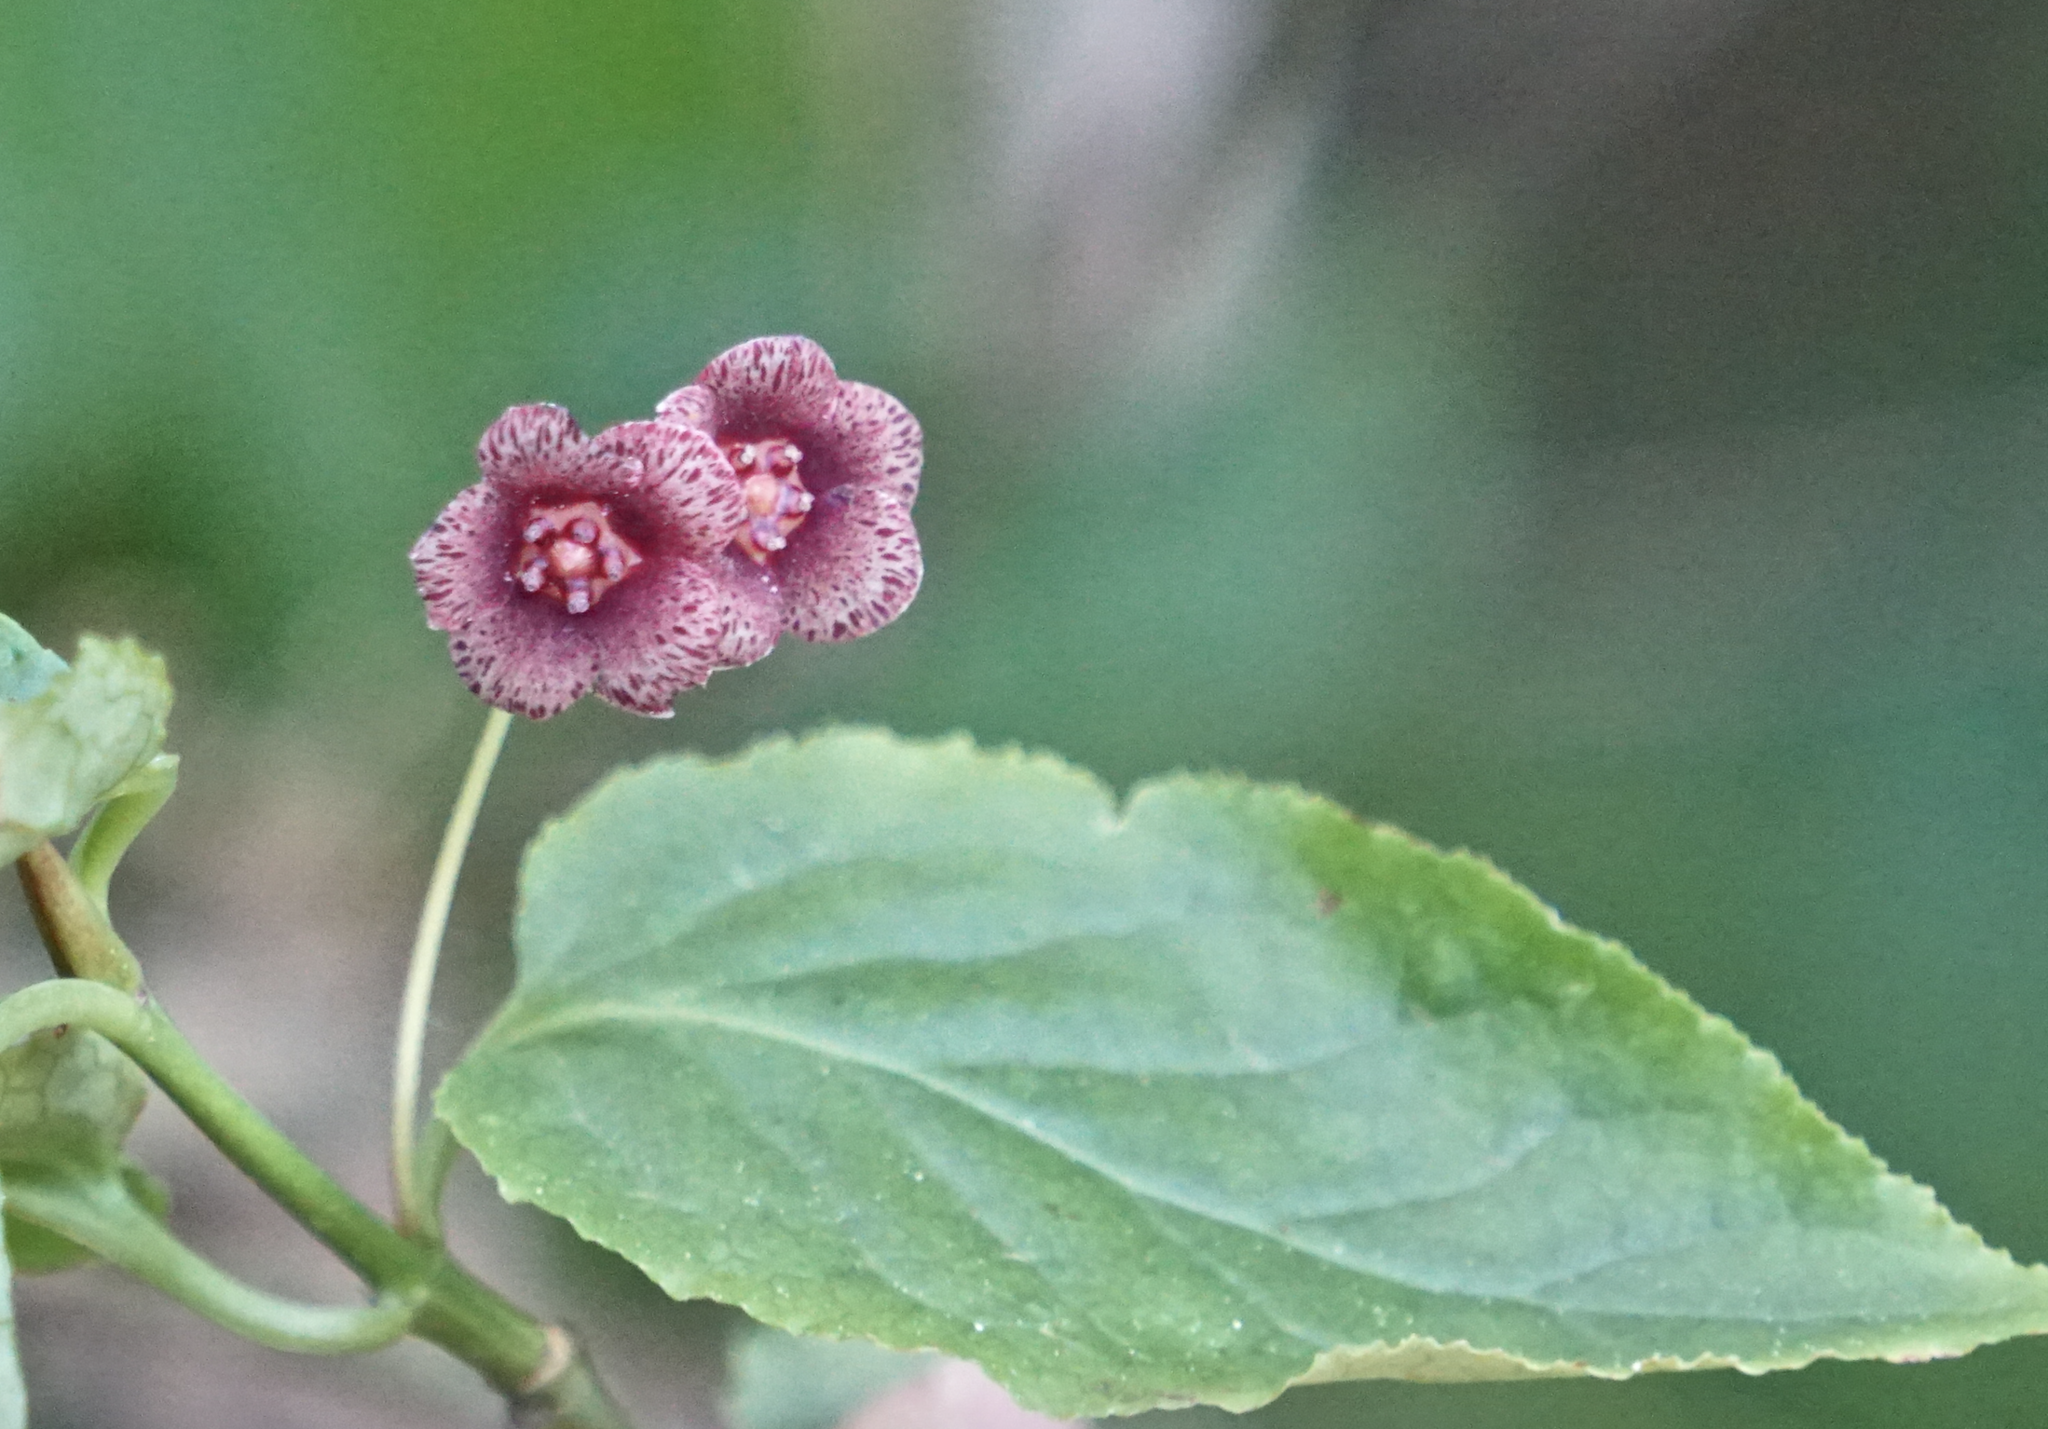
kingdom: Plantae
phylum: Tracheophyta
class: Magnoliopsida
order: Celastrales
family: Celastraceae
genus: Euonymus
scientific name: Euonymus occidentalis
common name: Western burningbush
